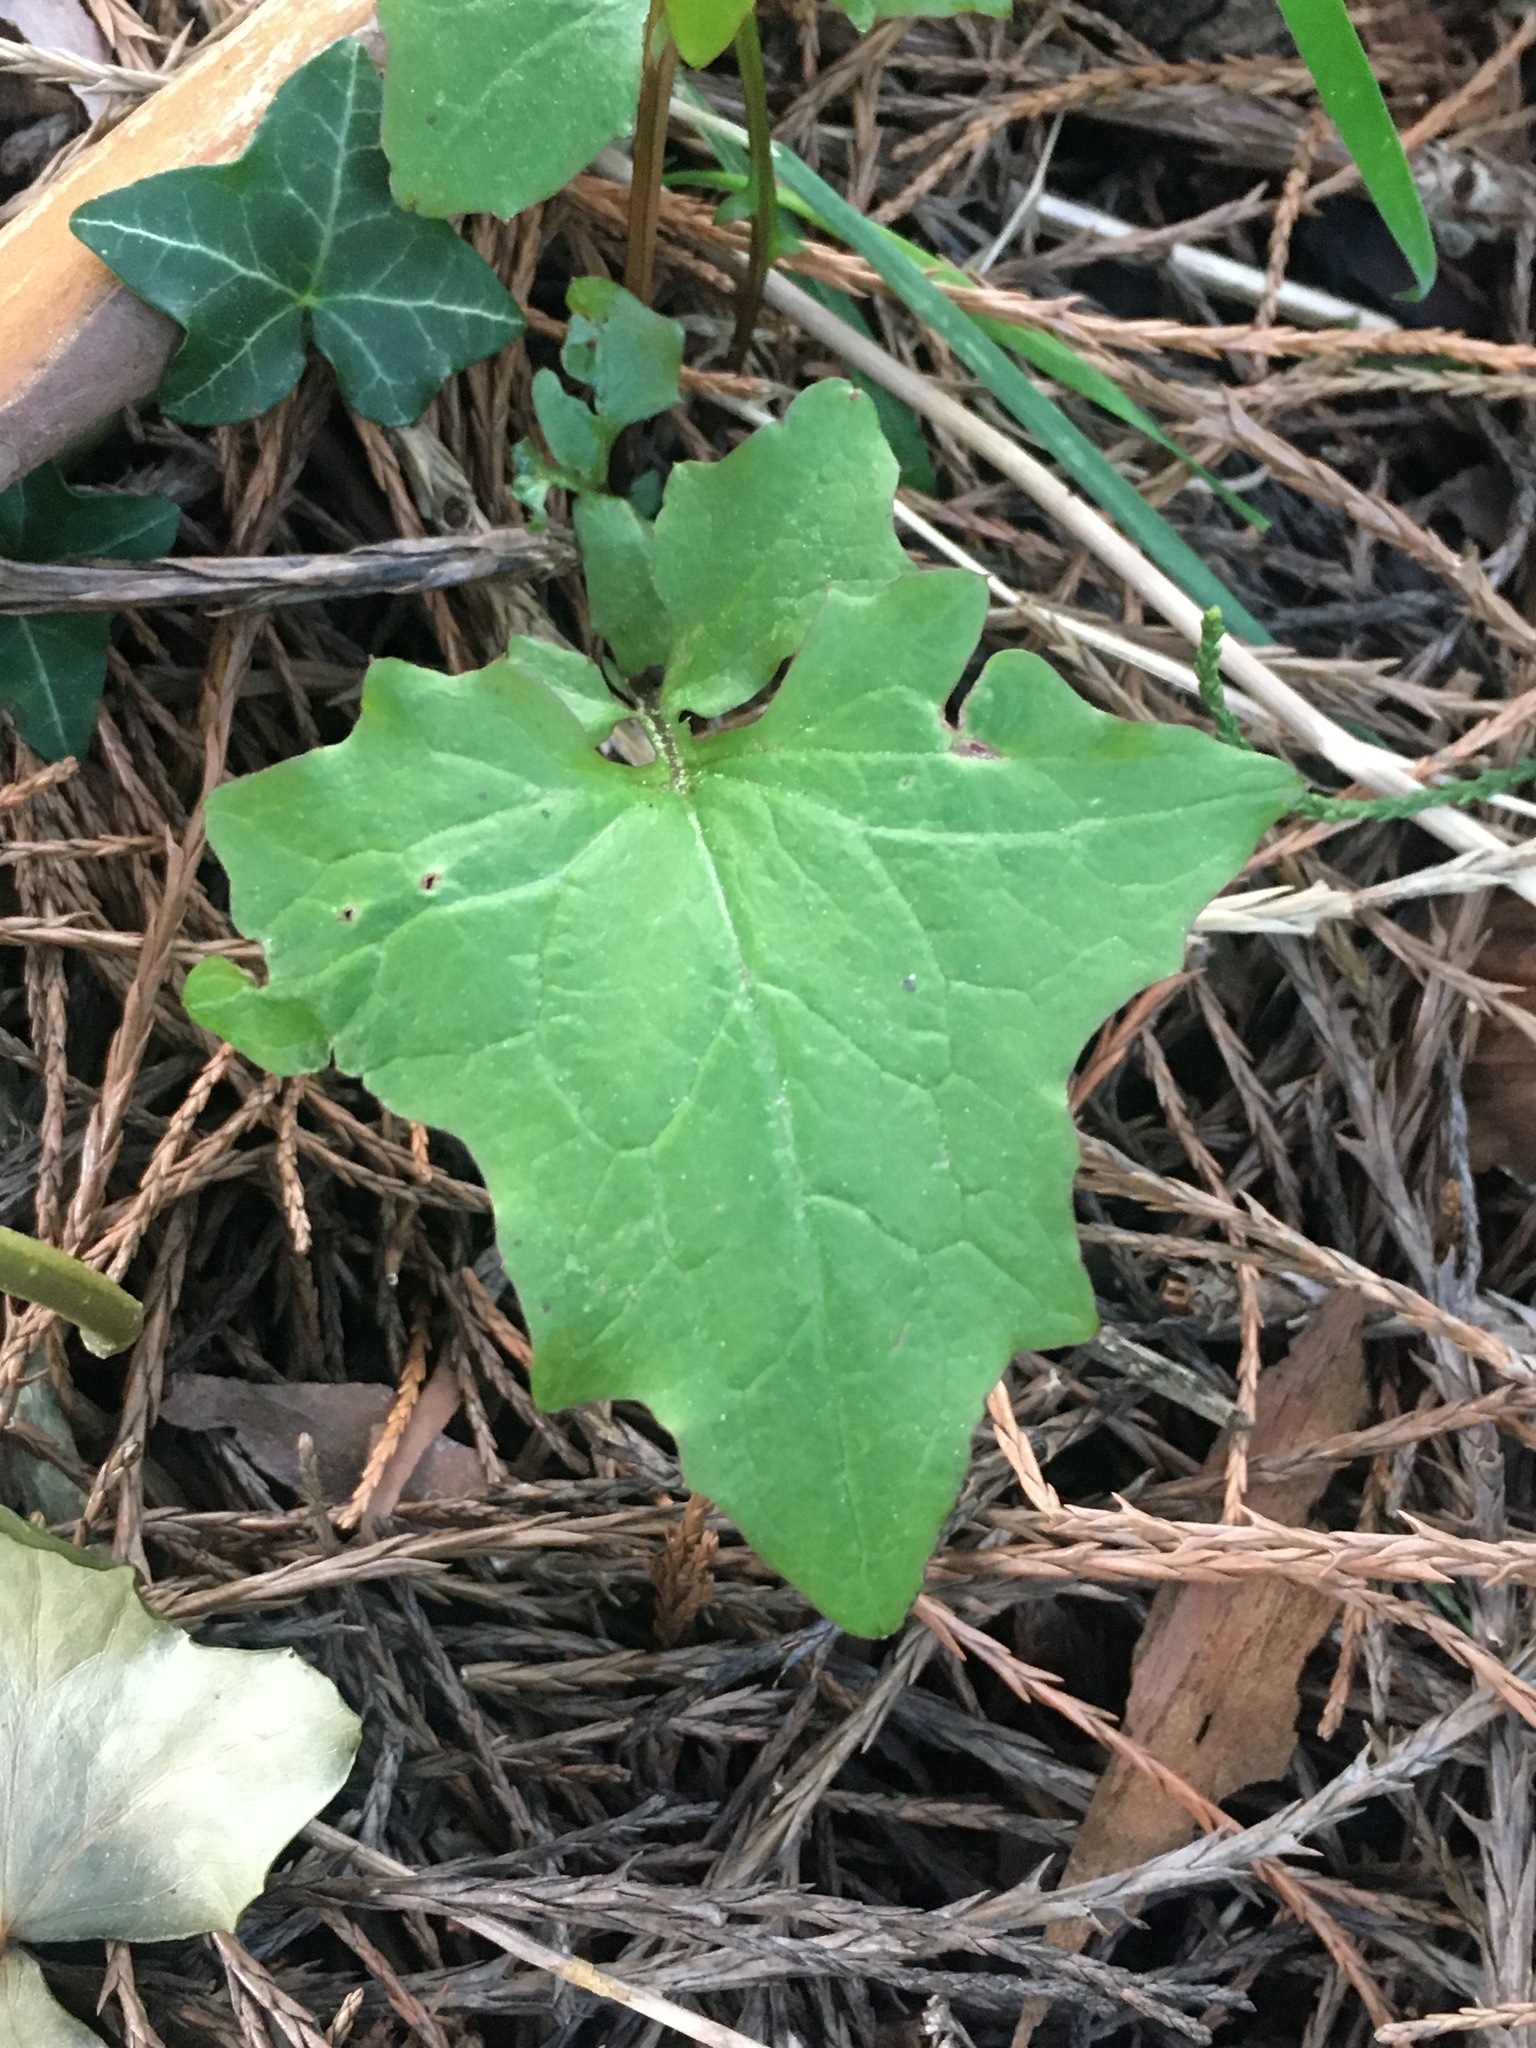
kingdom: Plantae
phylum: Tracheophyta
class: Magnoliopsida
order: Asterales
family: Asteraceae
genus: Mycelis
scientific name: Mycelis muralis
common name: Wall lettuce
